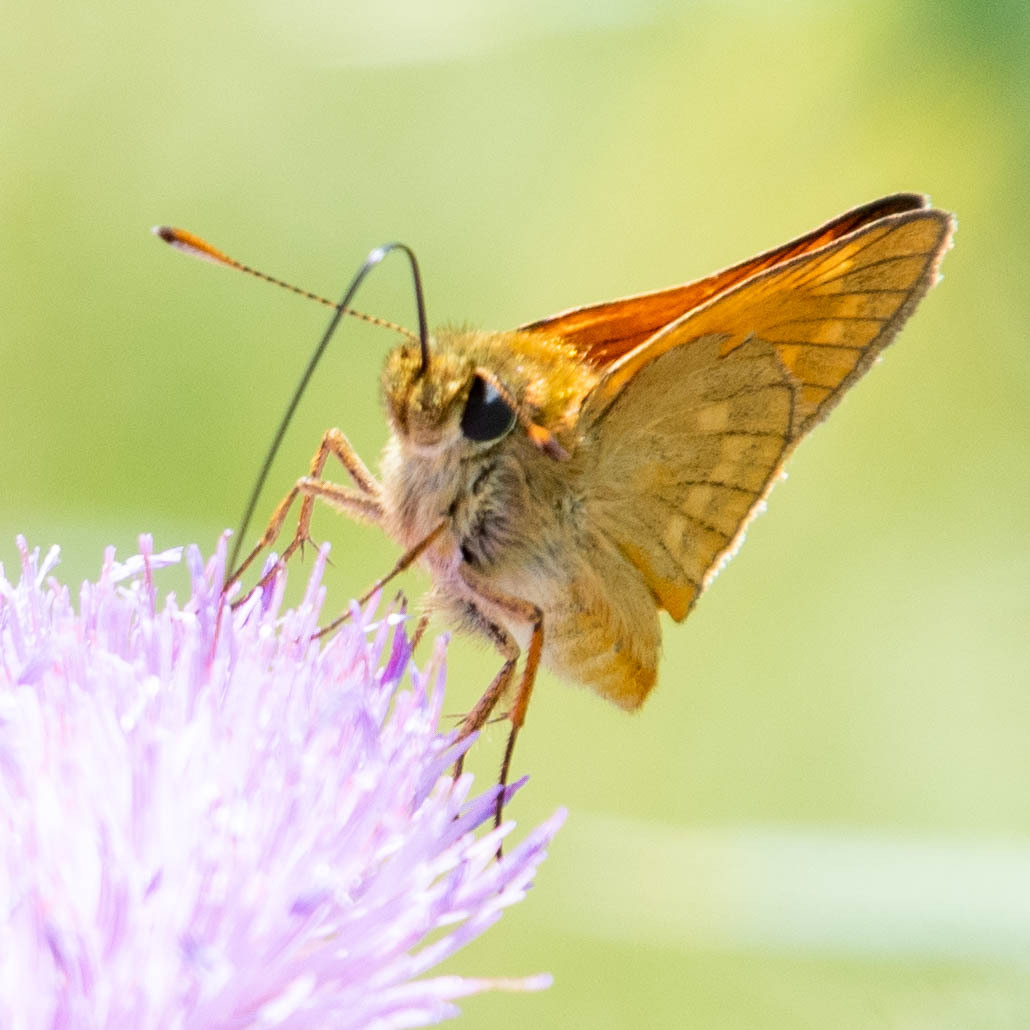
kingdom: Animalia
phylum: Arthropoda
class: Insecta
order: Lepidoptera
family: Hesperiidae
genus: Ochlodes
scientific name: Ochlodes venata
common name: Large skipper
